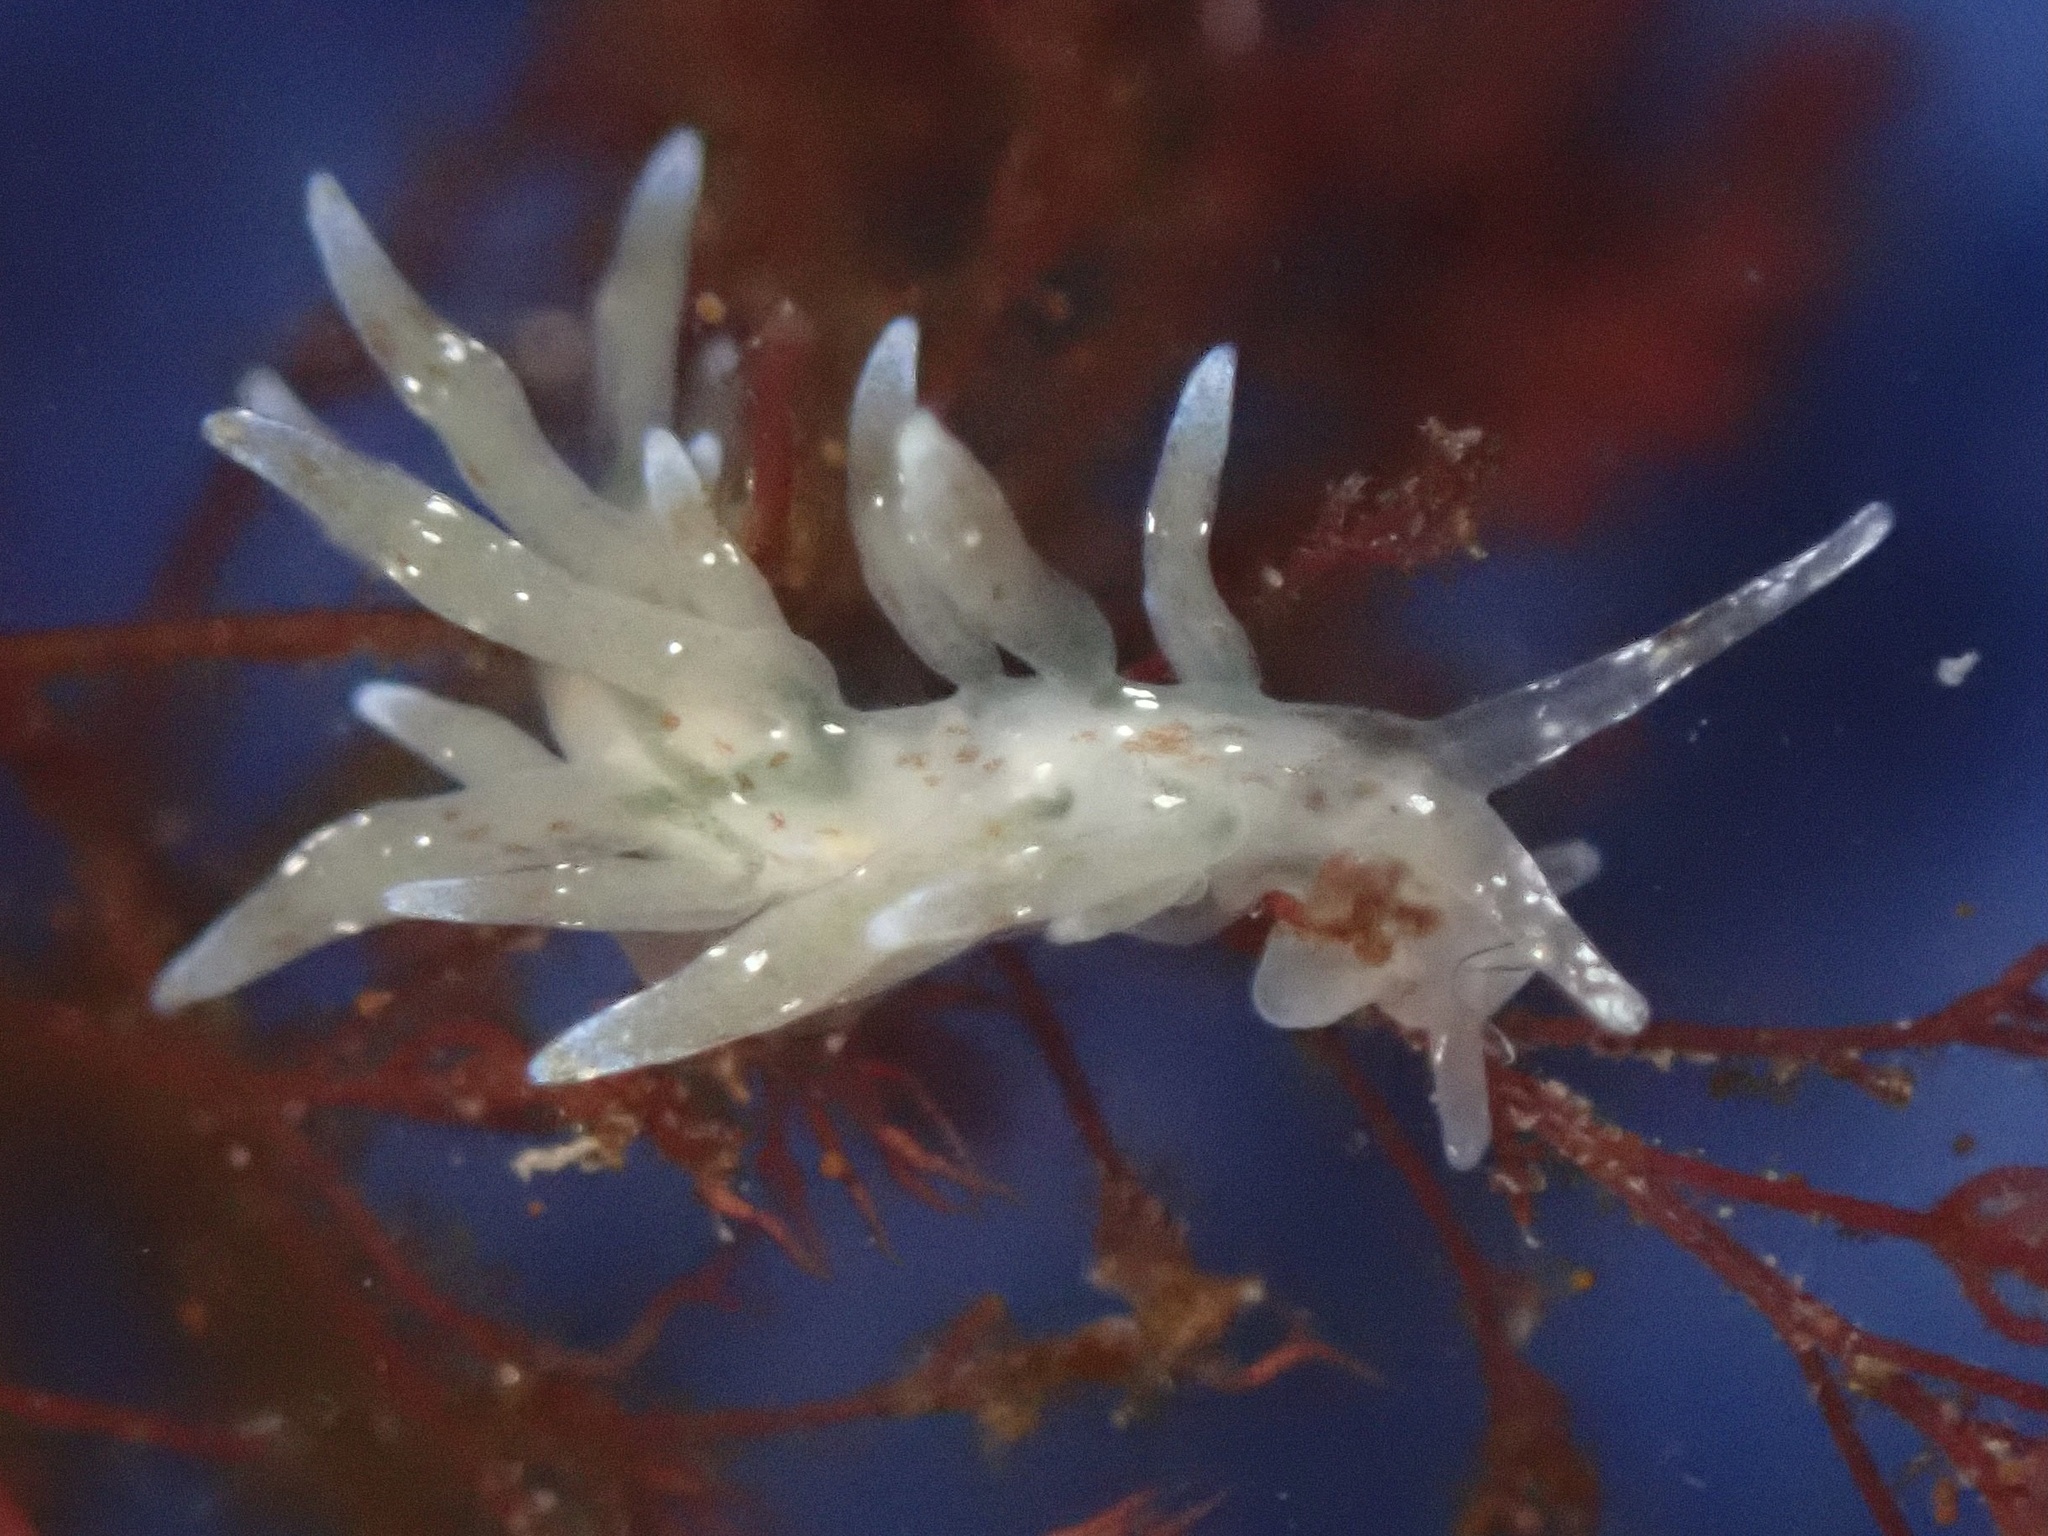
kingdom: Animalia
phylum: Mollusca
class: Gastropoda
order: Nudibranchia
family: Eubranchidae
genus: Eubranchus
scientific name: Eubranchus olivaceus
